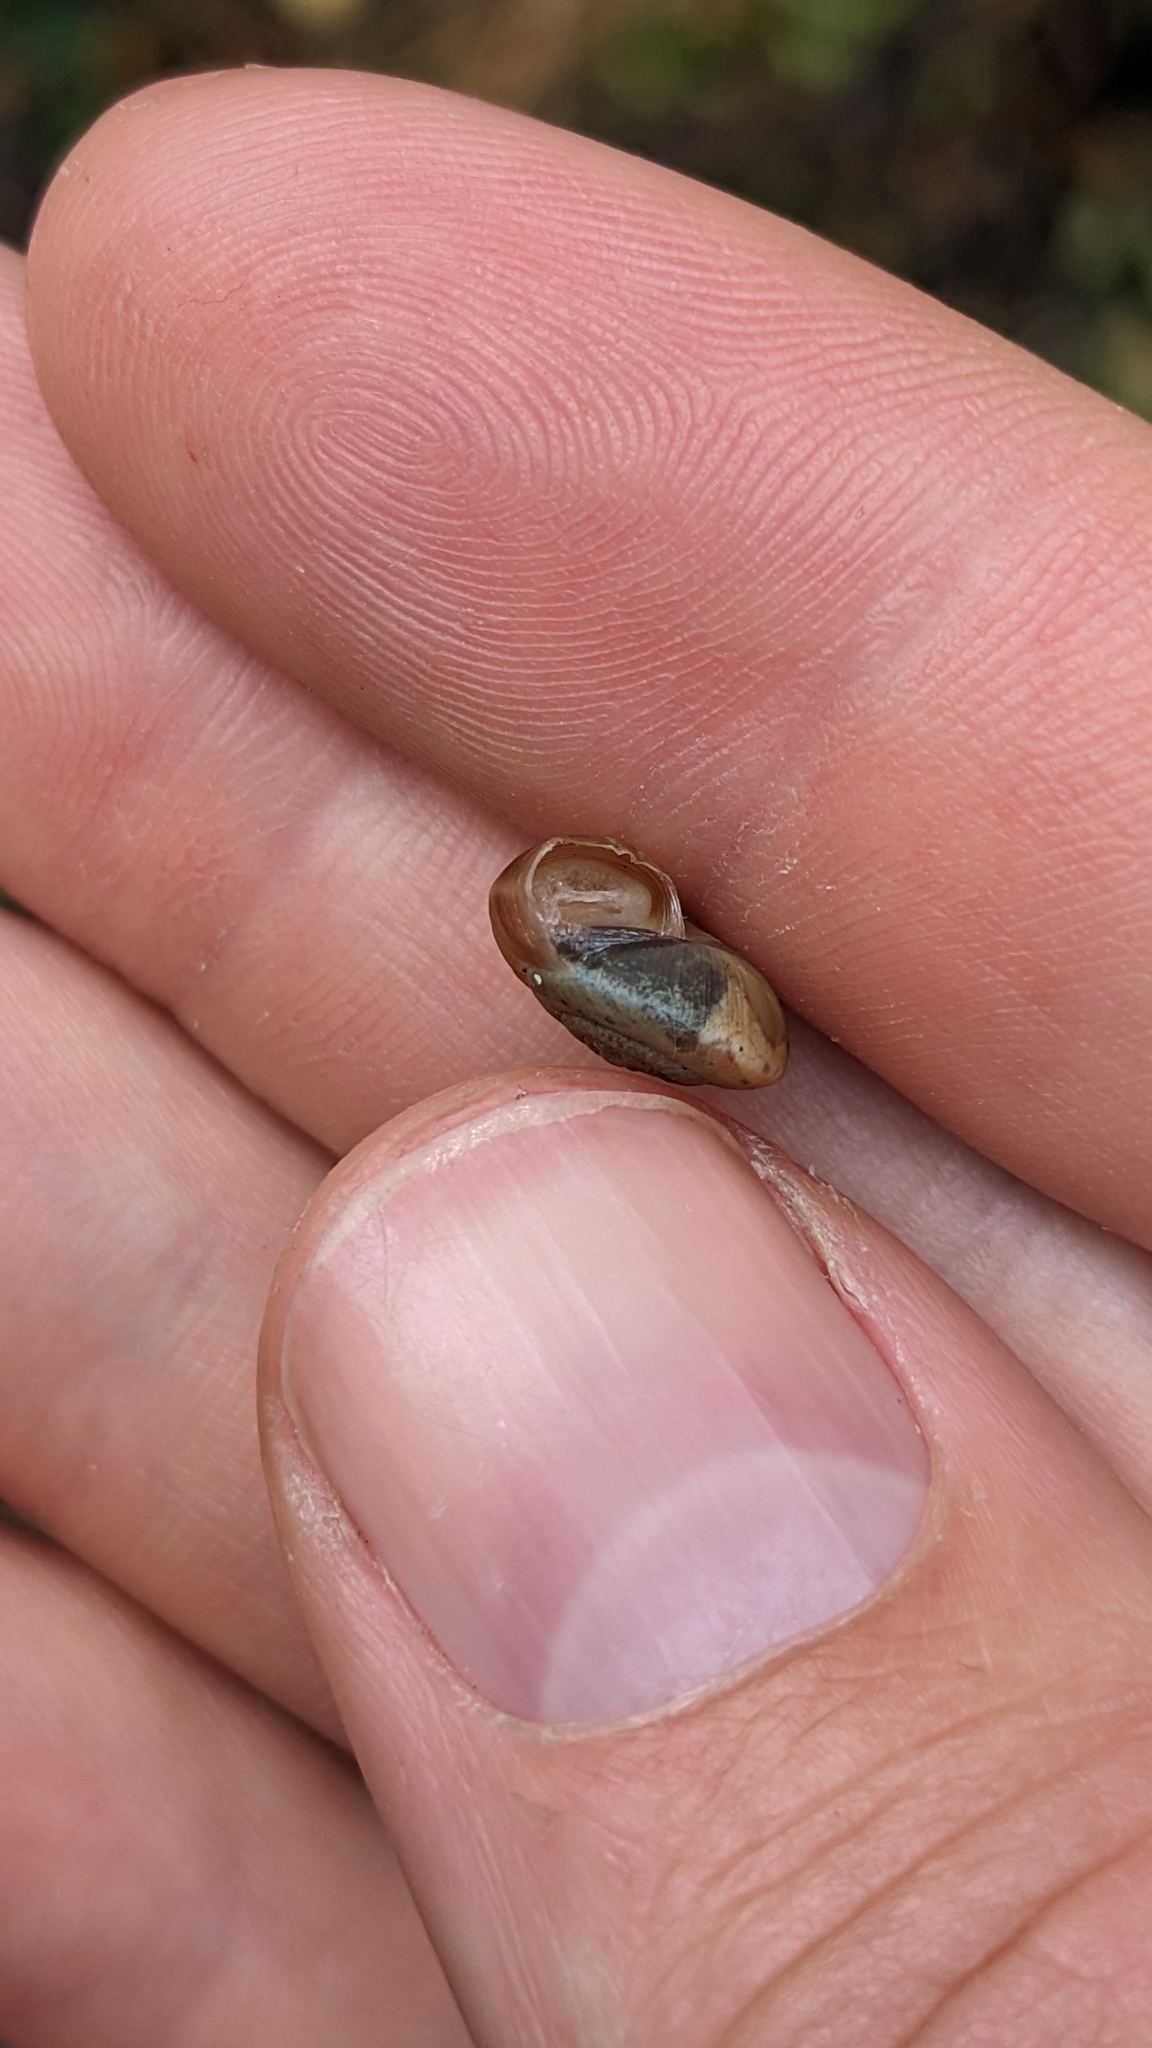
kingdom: Animalia
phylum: Mollusca
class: Gastropoda
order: Stylommatophora
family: Hygromiidae
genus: Trochulus
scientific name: Trochulus striolatus
